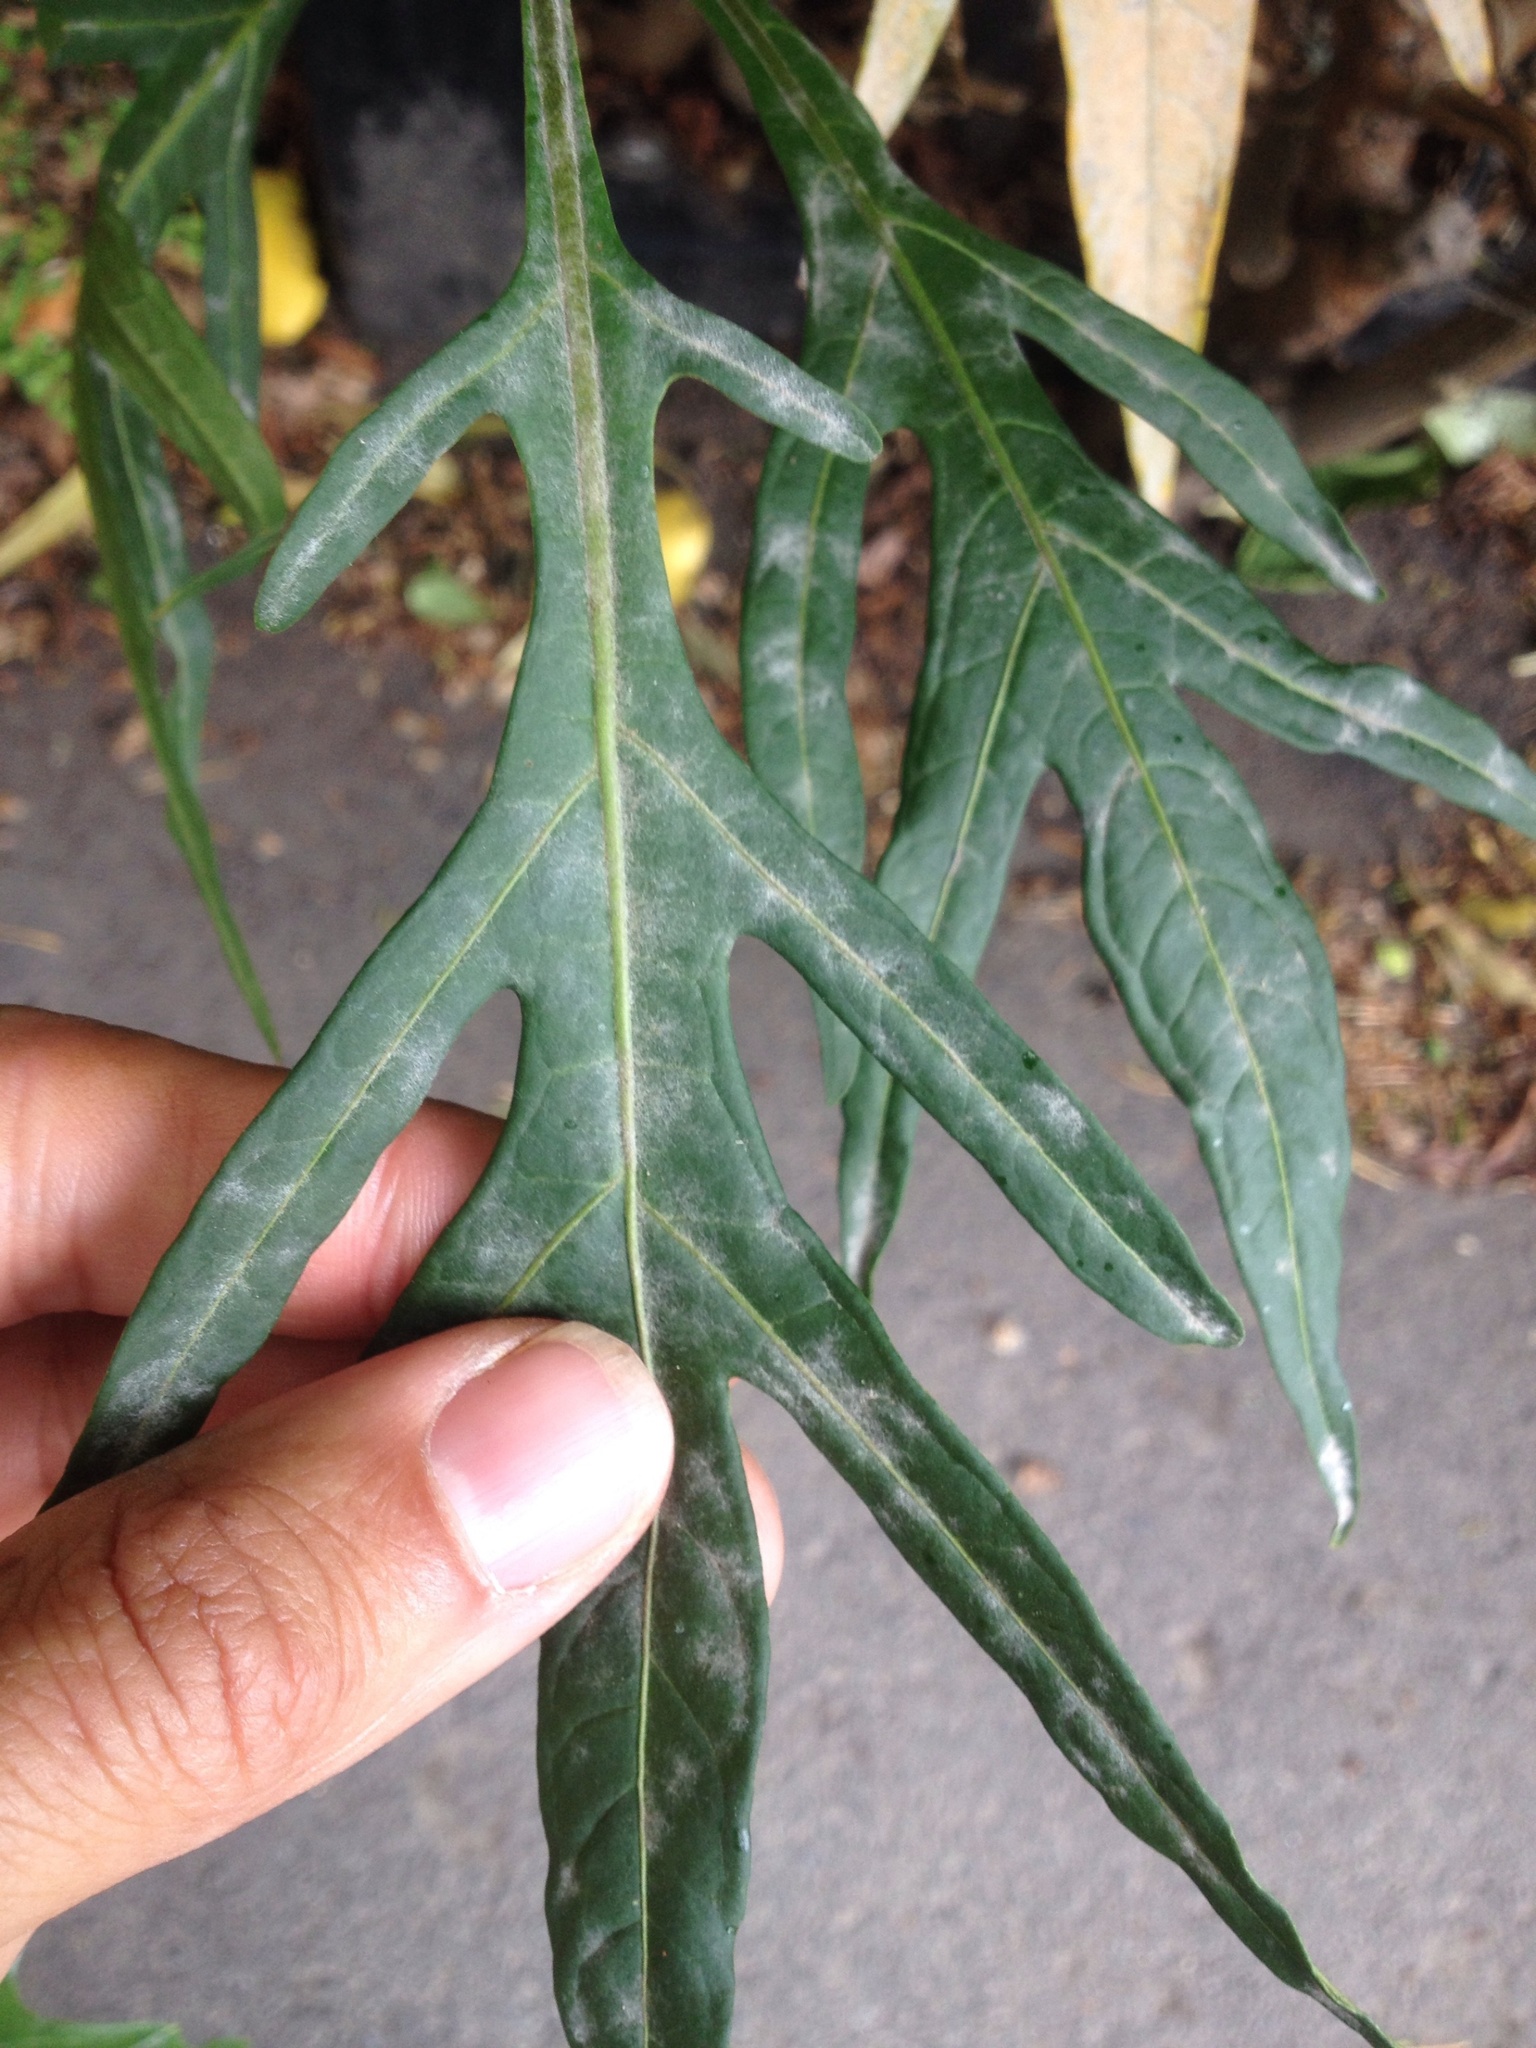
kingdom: Fungi
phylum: Ascomycota
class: Leotiomycetes
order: Helotiales
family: Erysiphaceae
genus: Golovinomyces
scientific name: Golovinomyces longipes
